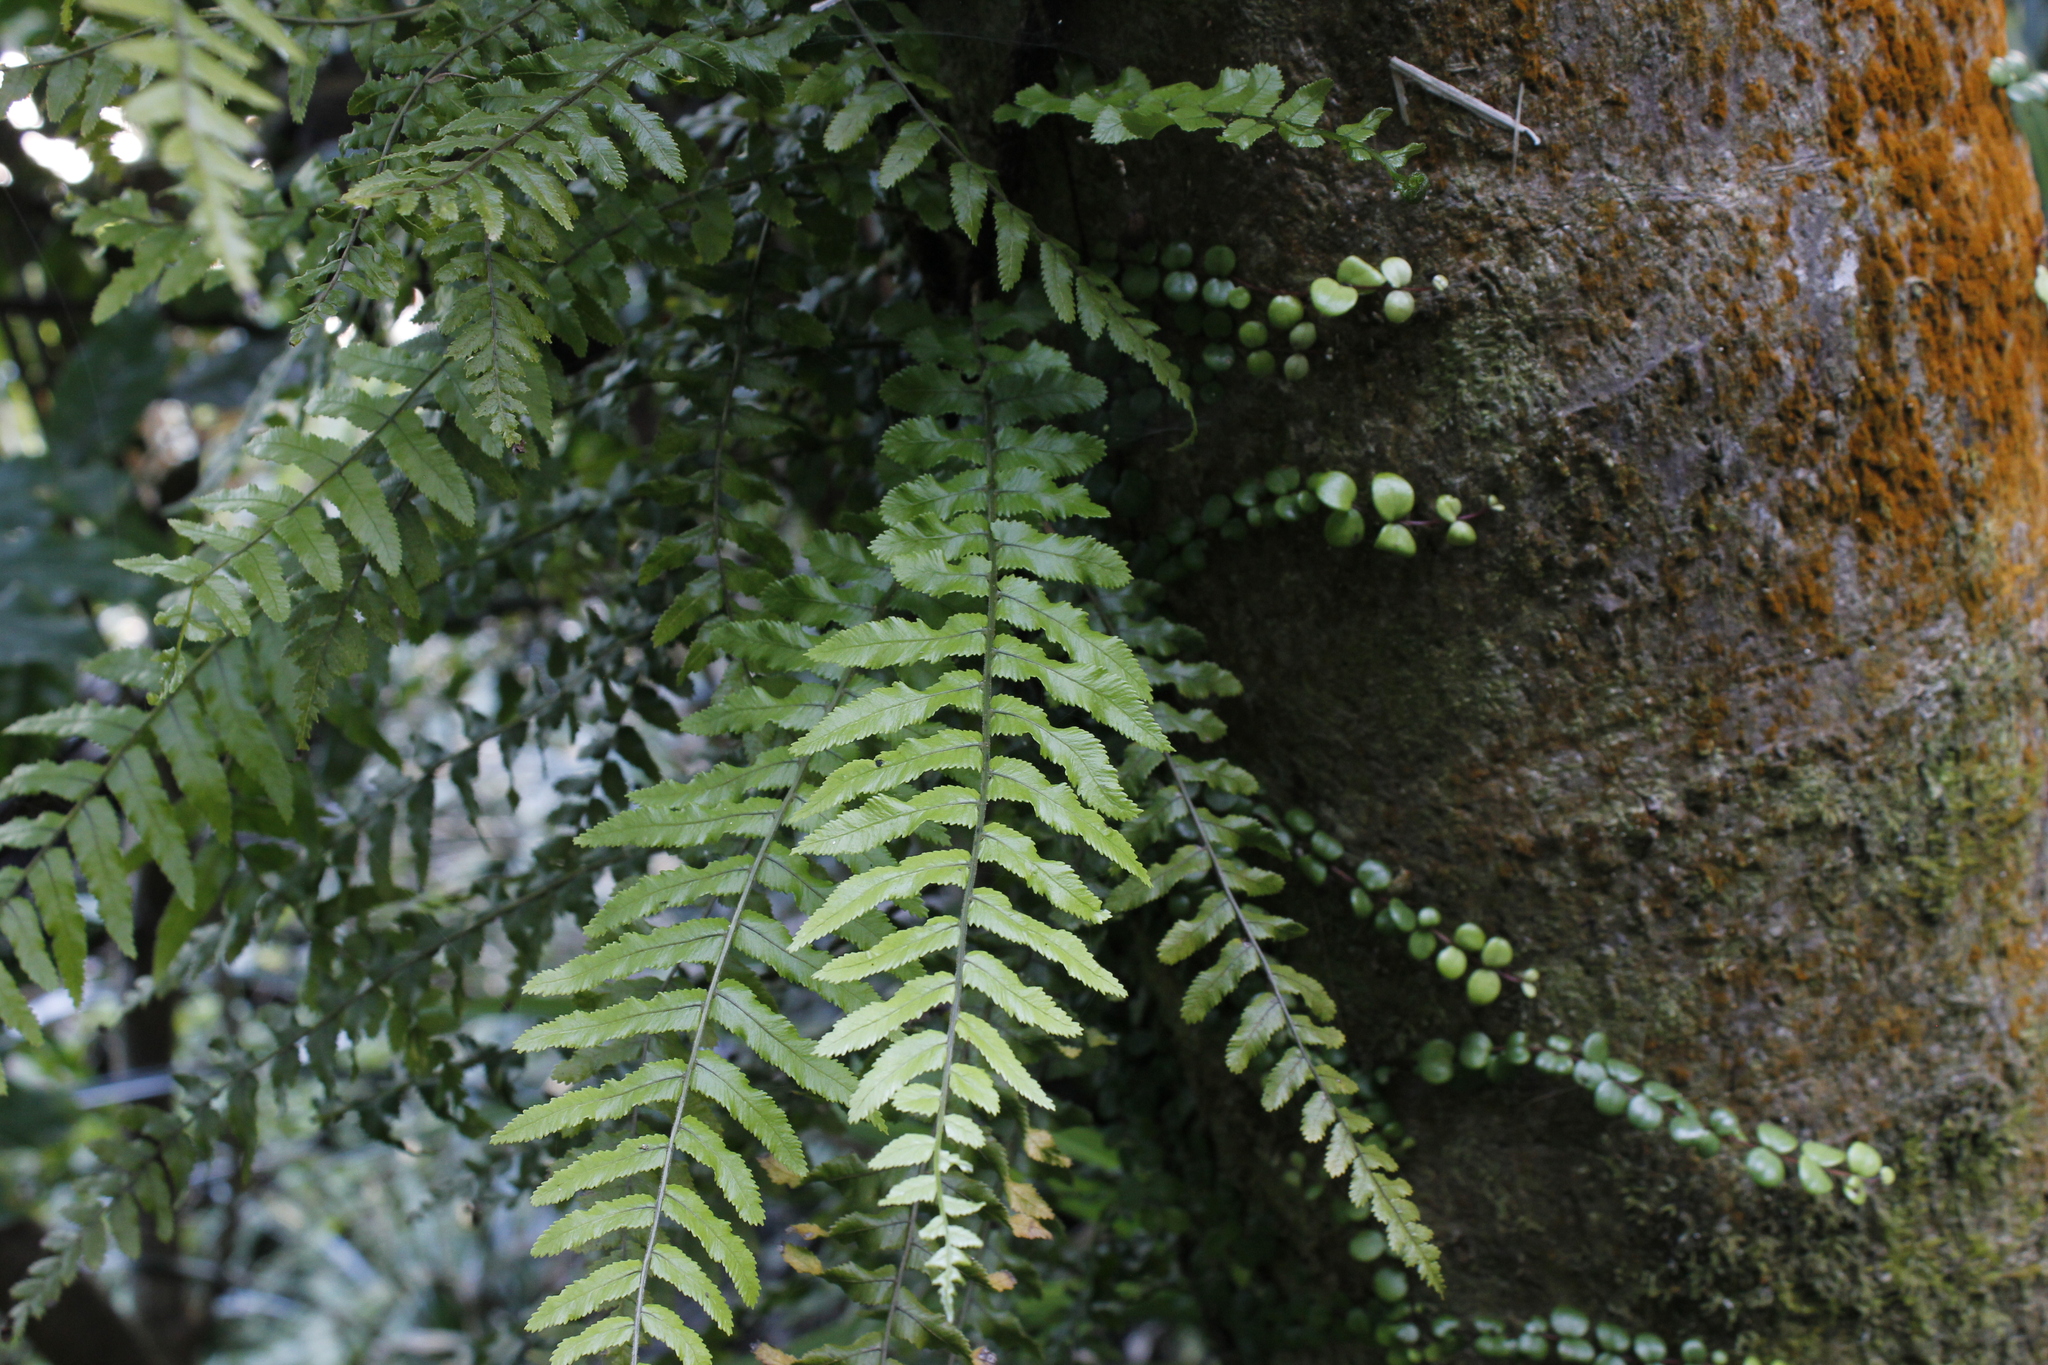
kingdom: Plantae
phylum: Tracheophyta
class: Polypodiopsida
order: Polypodiales
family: Blechnaceae
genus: Icarus
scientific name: Icarus filiformis
